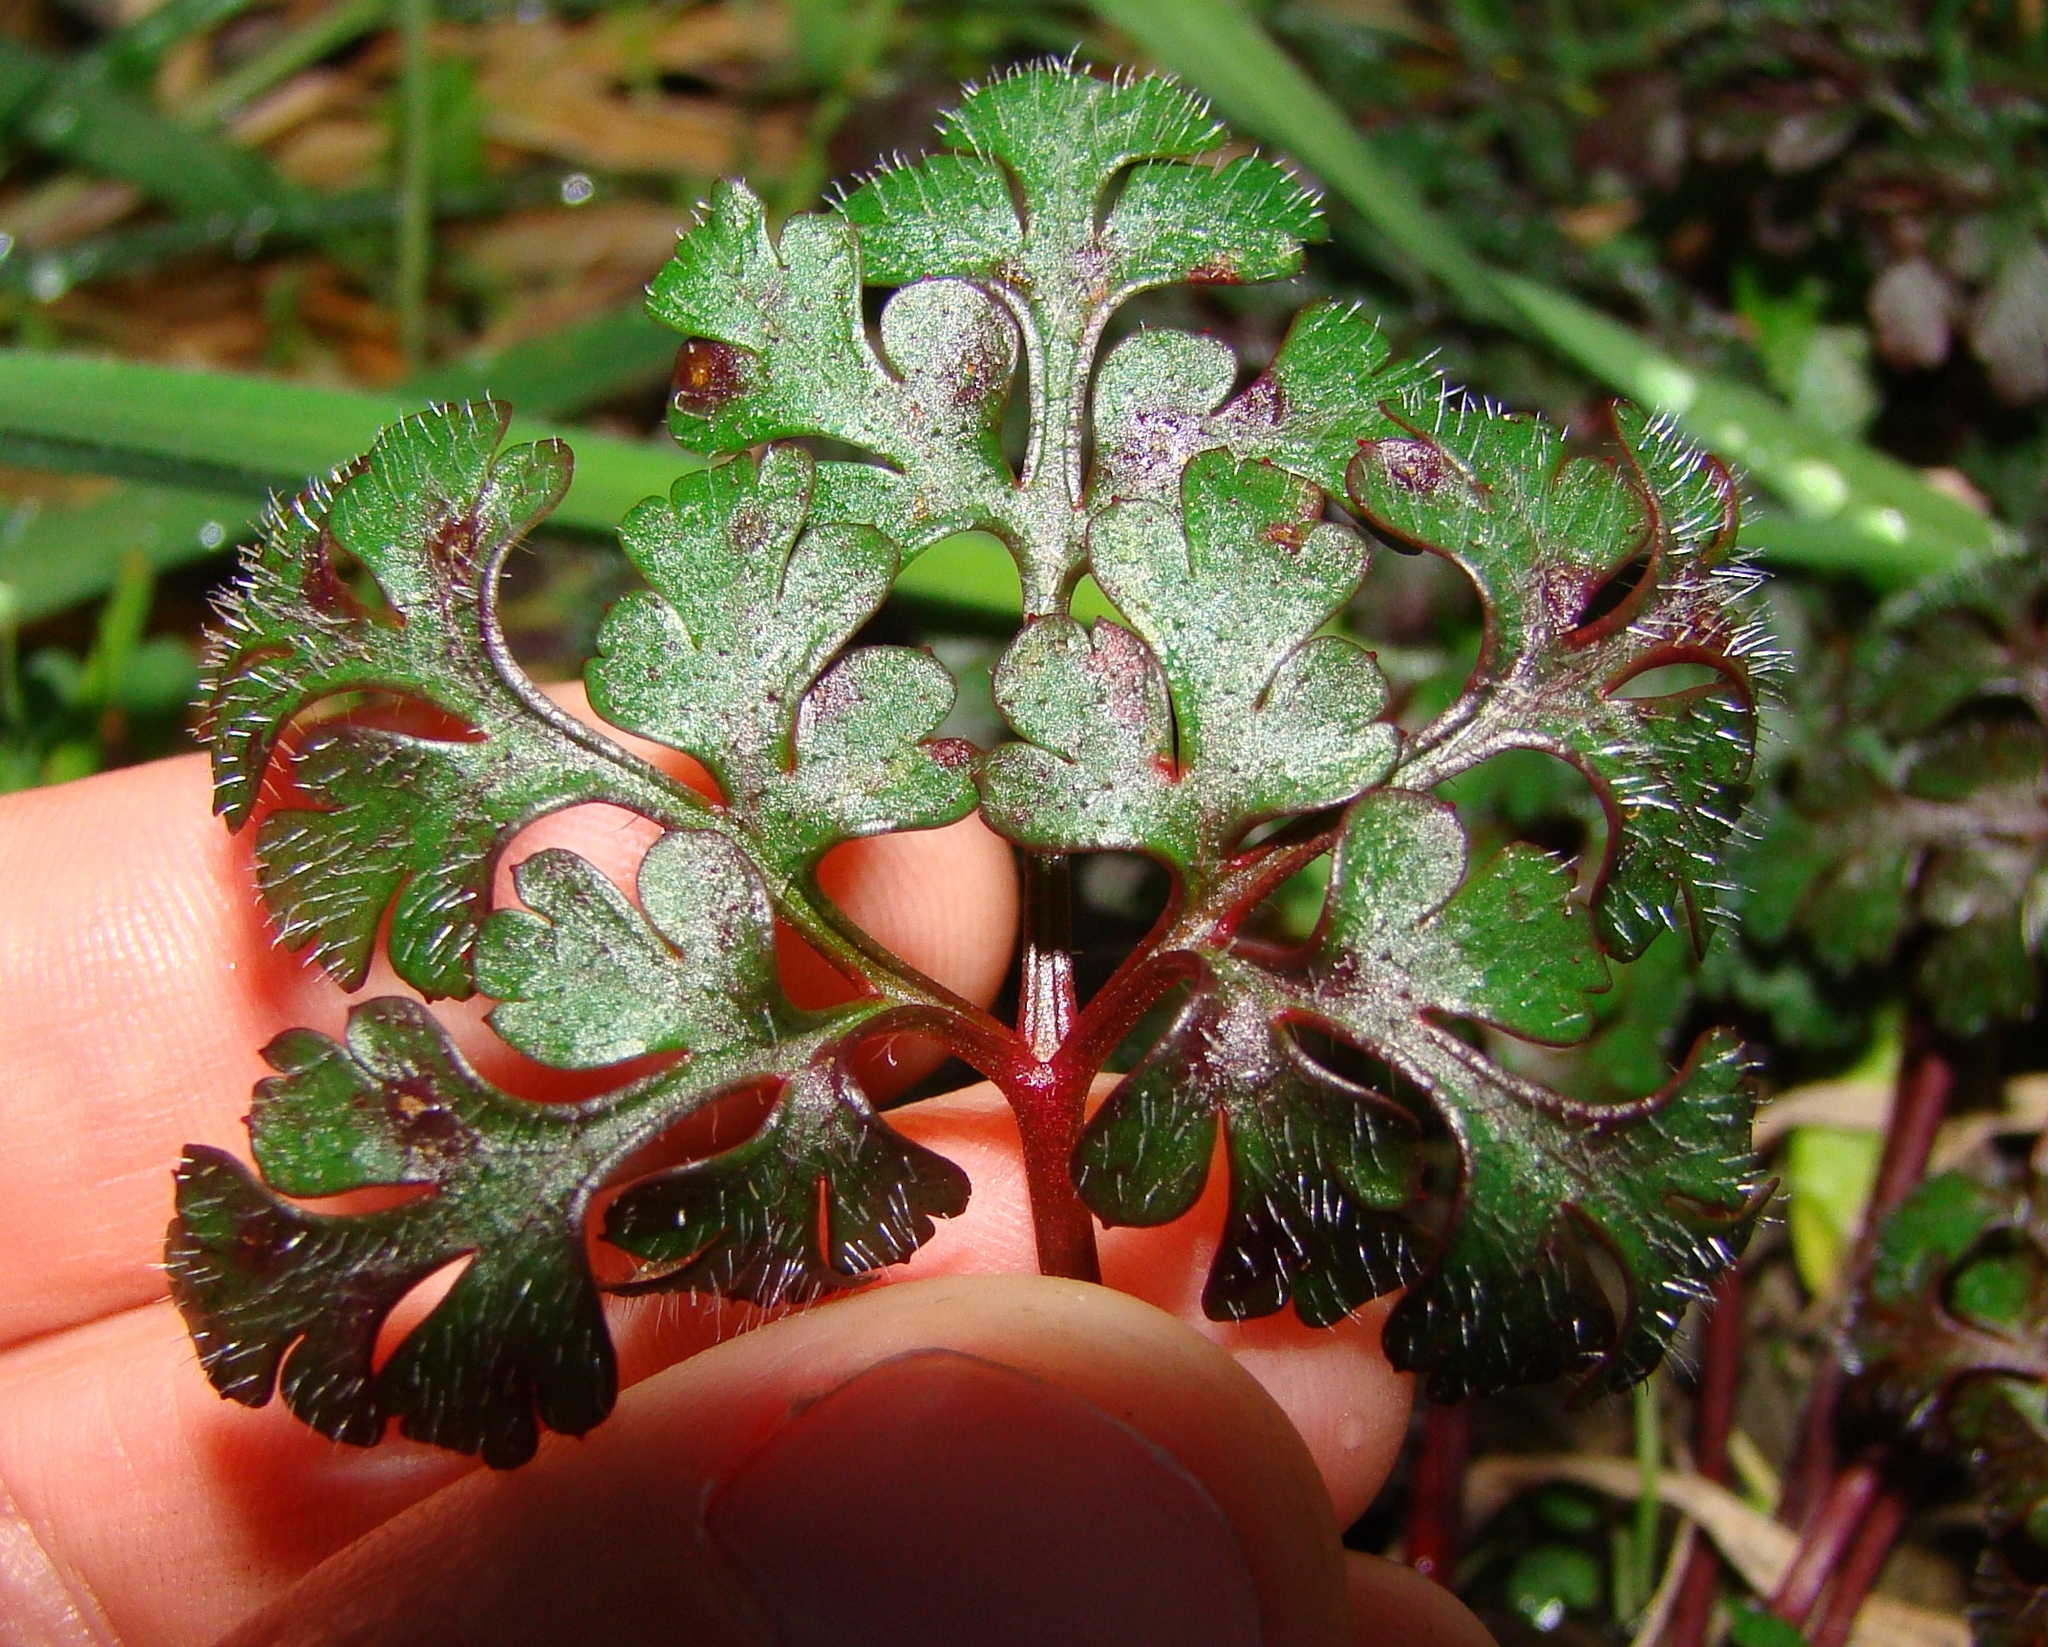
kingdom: Plantae
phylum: Tracheophyta
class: Magnoliopsida
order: Geraniales
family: Geraniaceae
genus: Geranium
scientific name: Geranium robertianum
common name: Herb-robert
